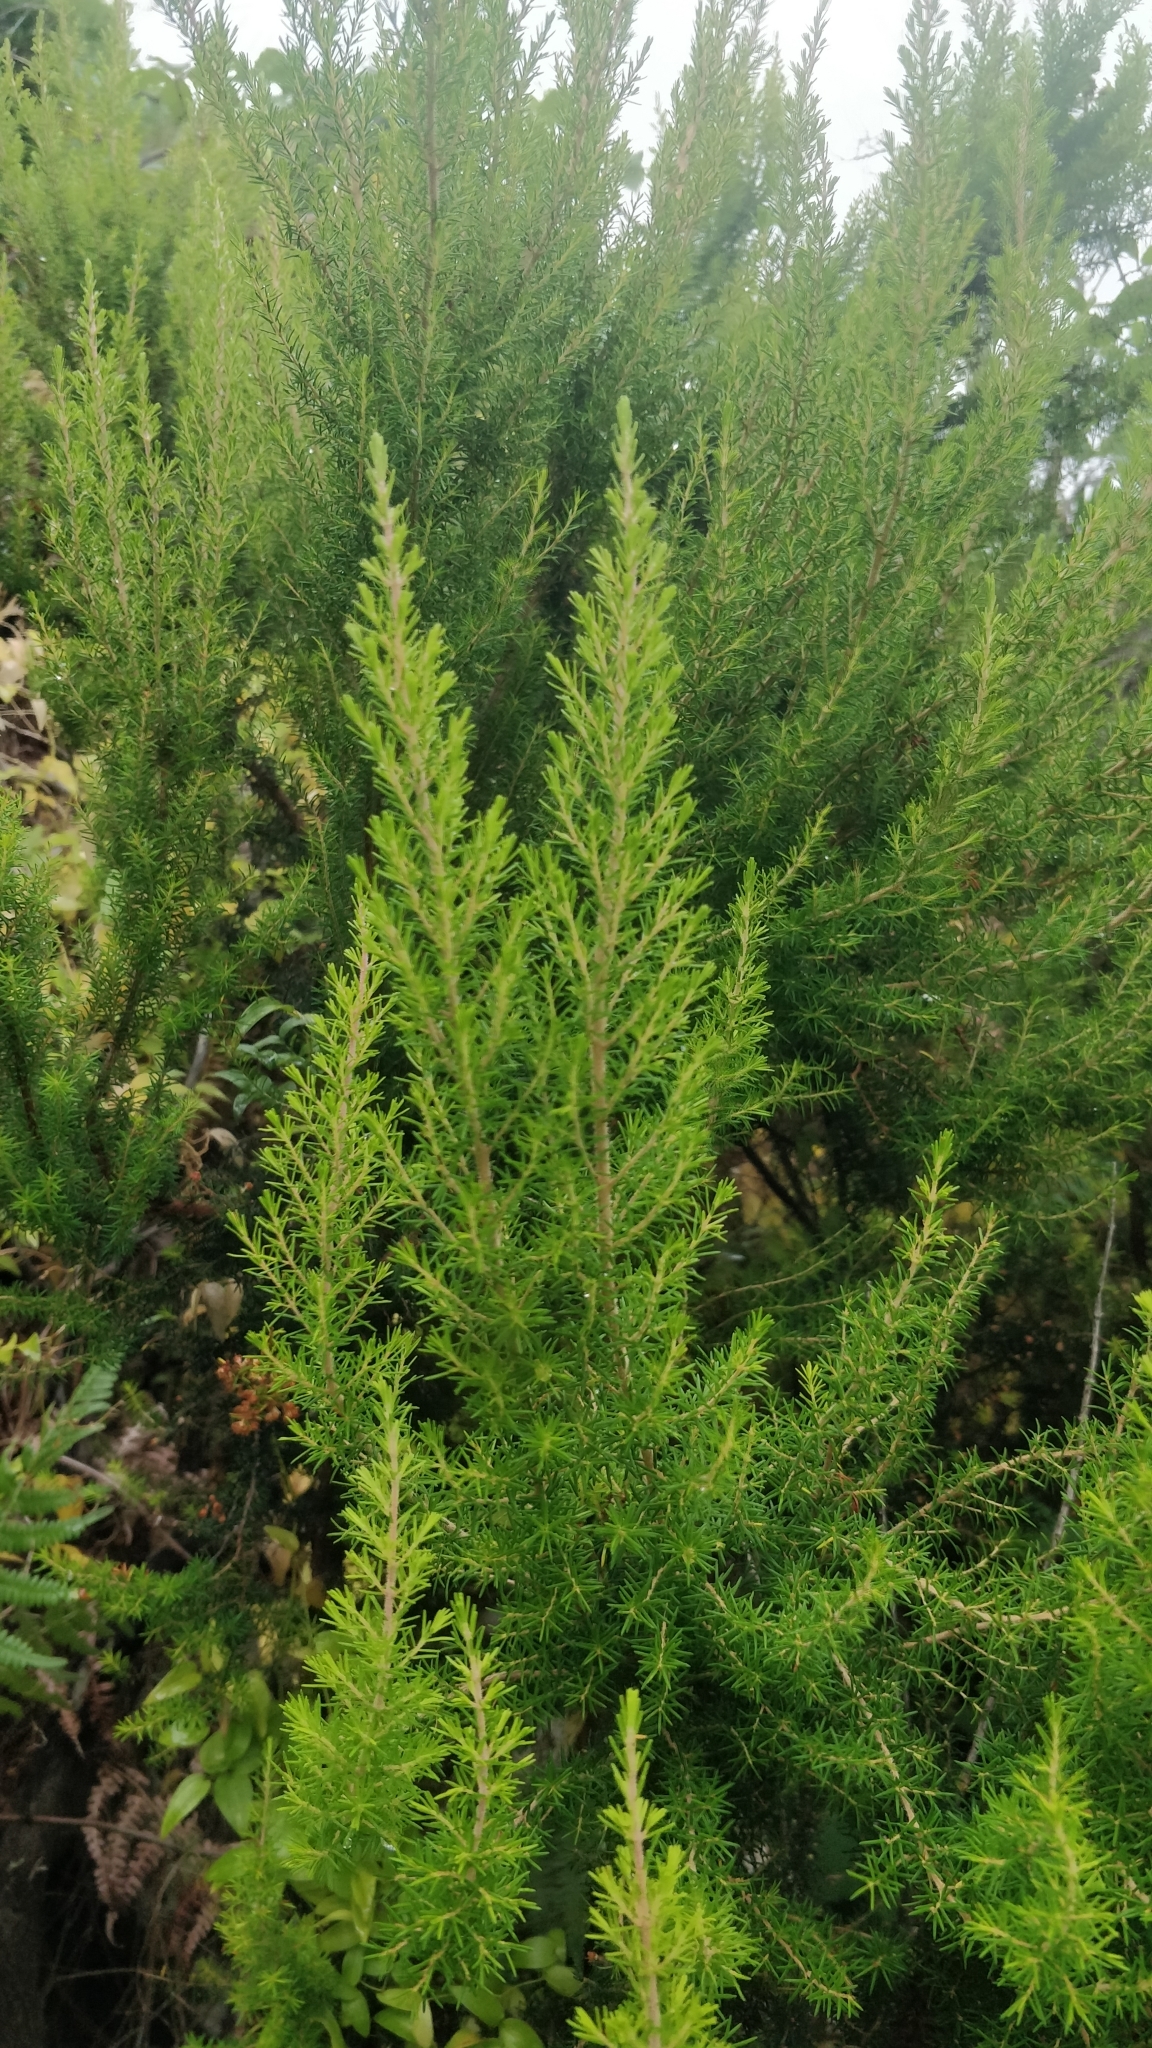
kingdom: Plantae
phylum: Tracheophyta
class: Magnoliopsida
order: Ericales
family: Ericaceae
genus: Erica
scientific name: Erica canariensis
